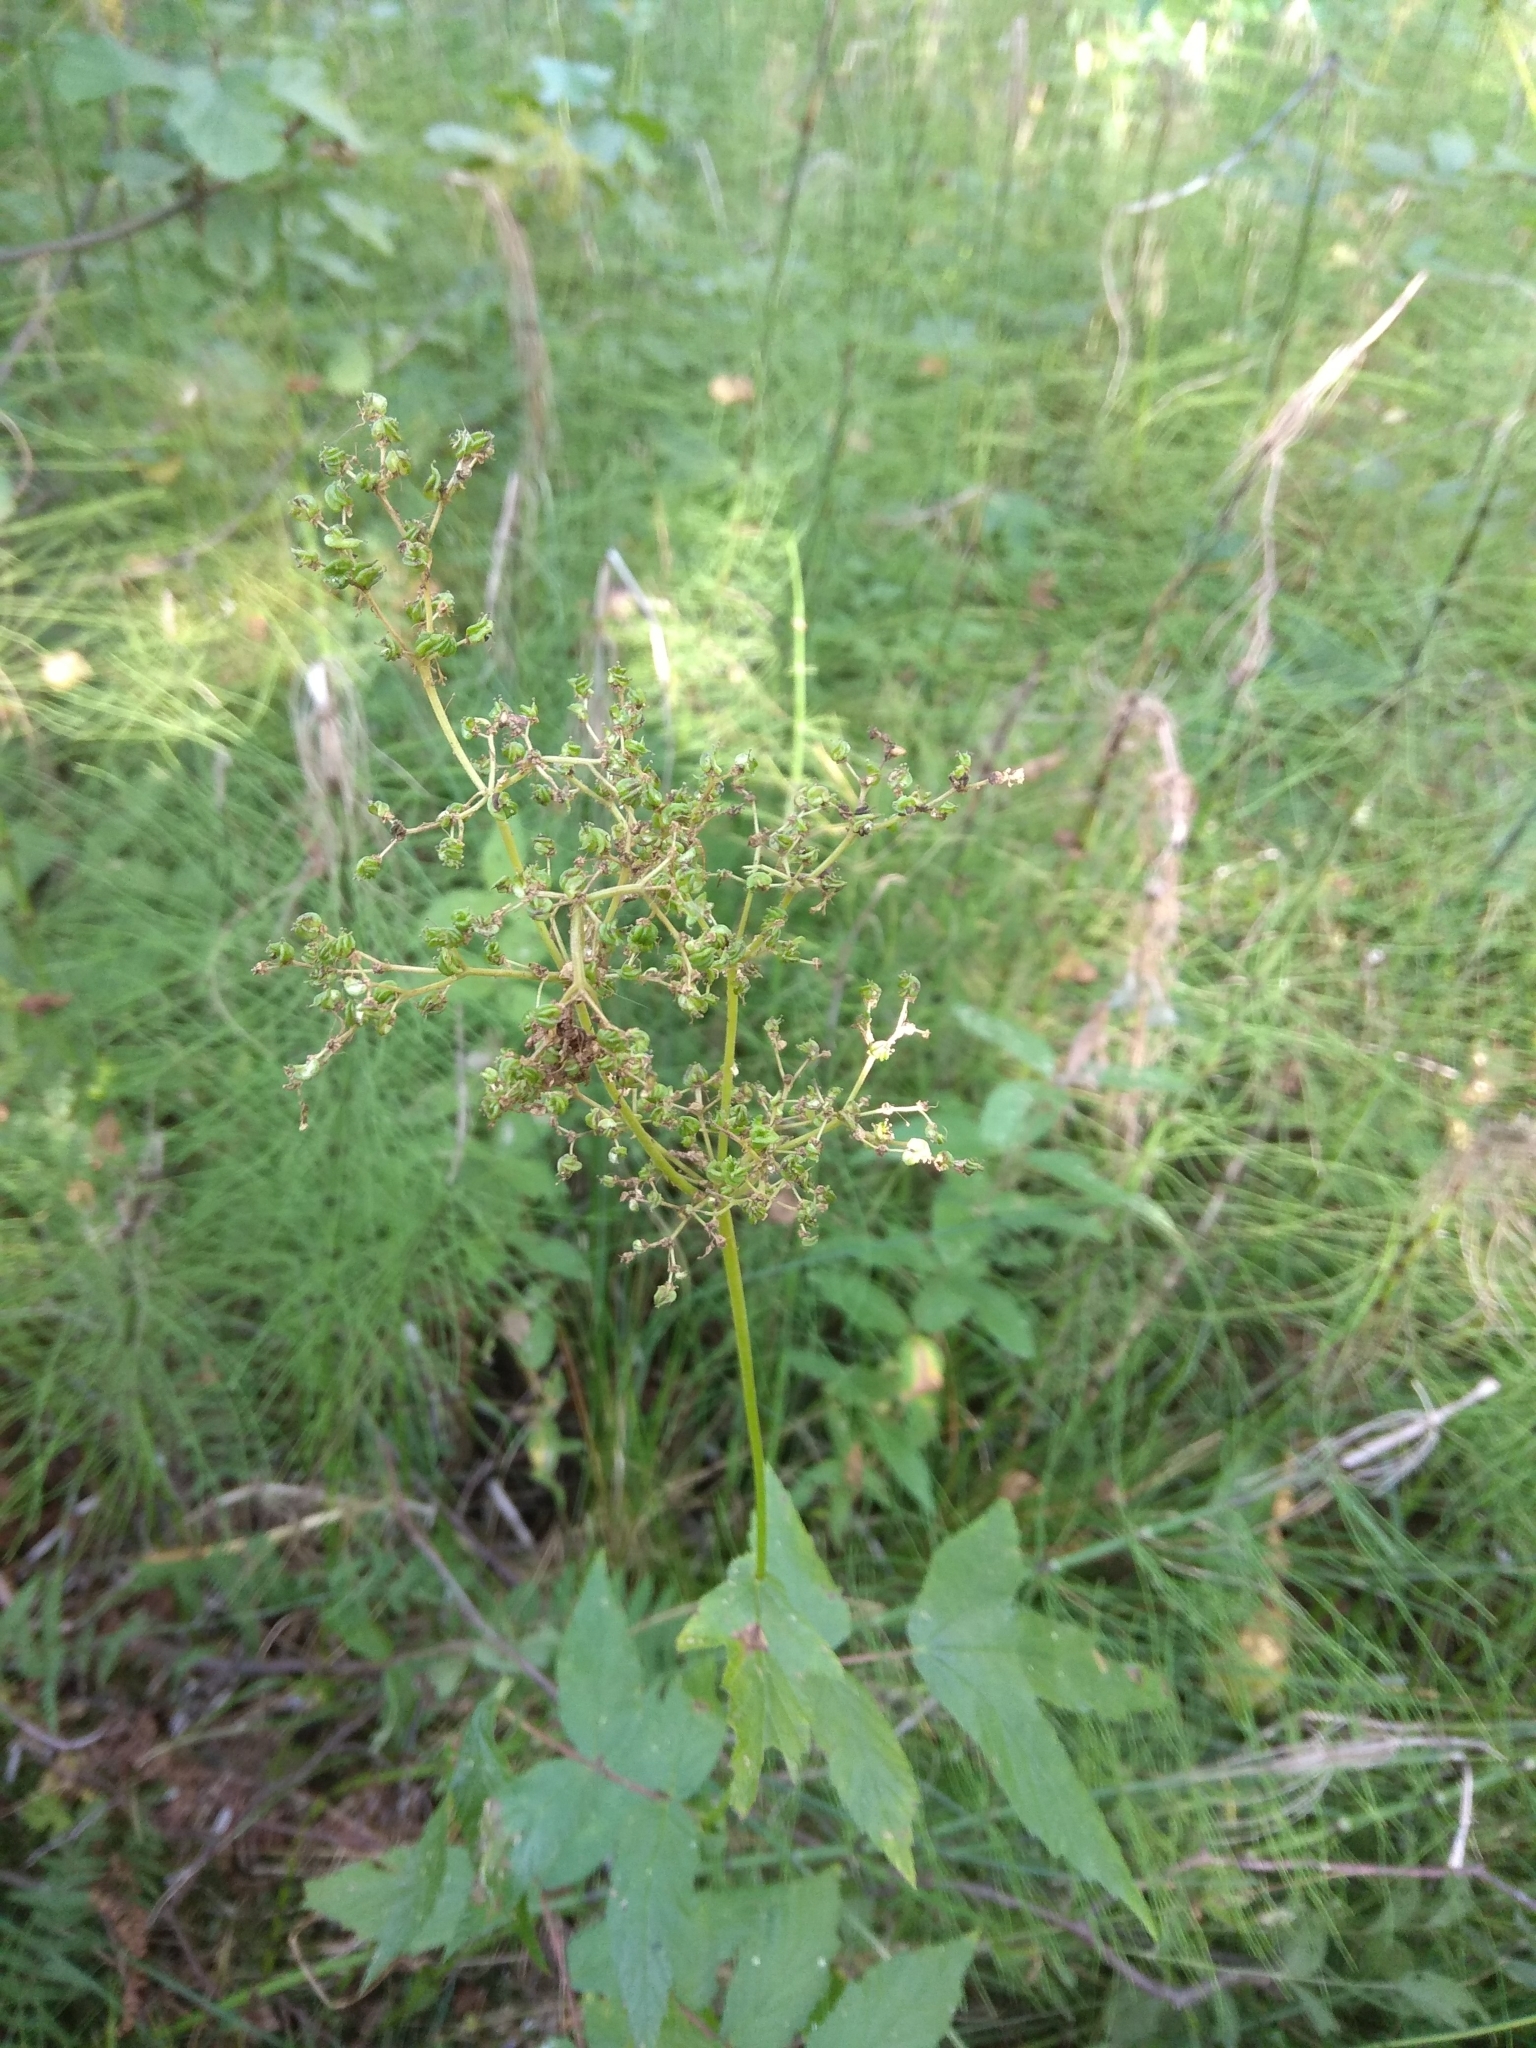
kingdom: Plantae
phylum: Tracheophyta
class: Magnoliopsida
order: Rosales
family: Rosaceae
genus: Filipendula
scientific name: Filipendula ulmaria
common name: Meadowsweet
